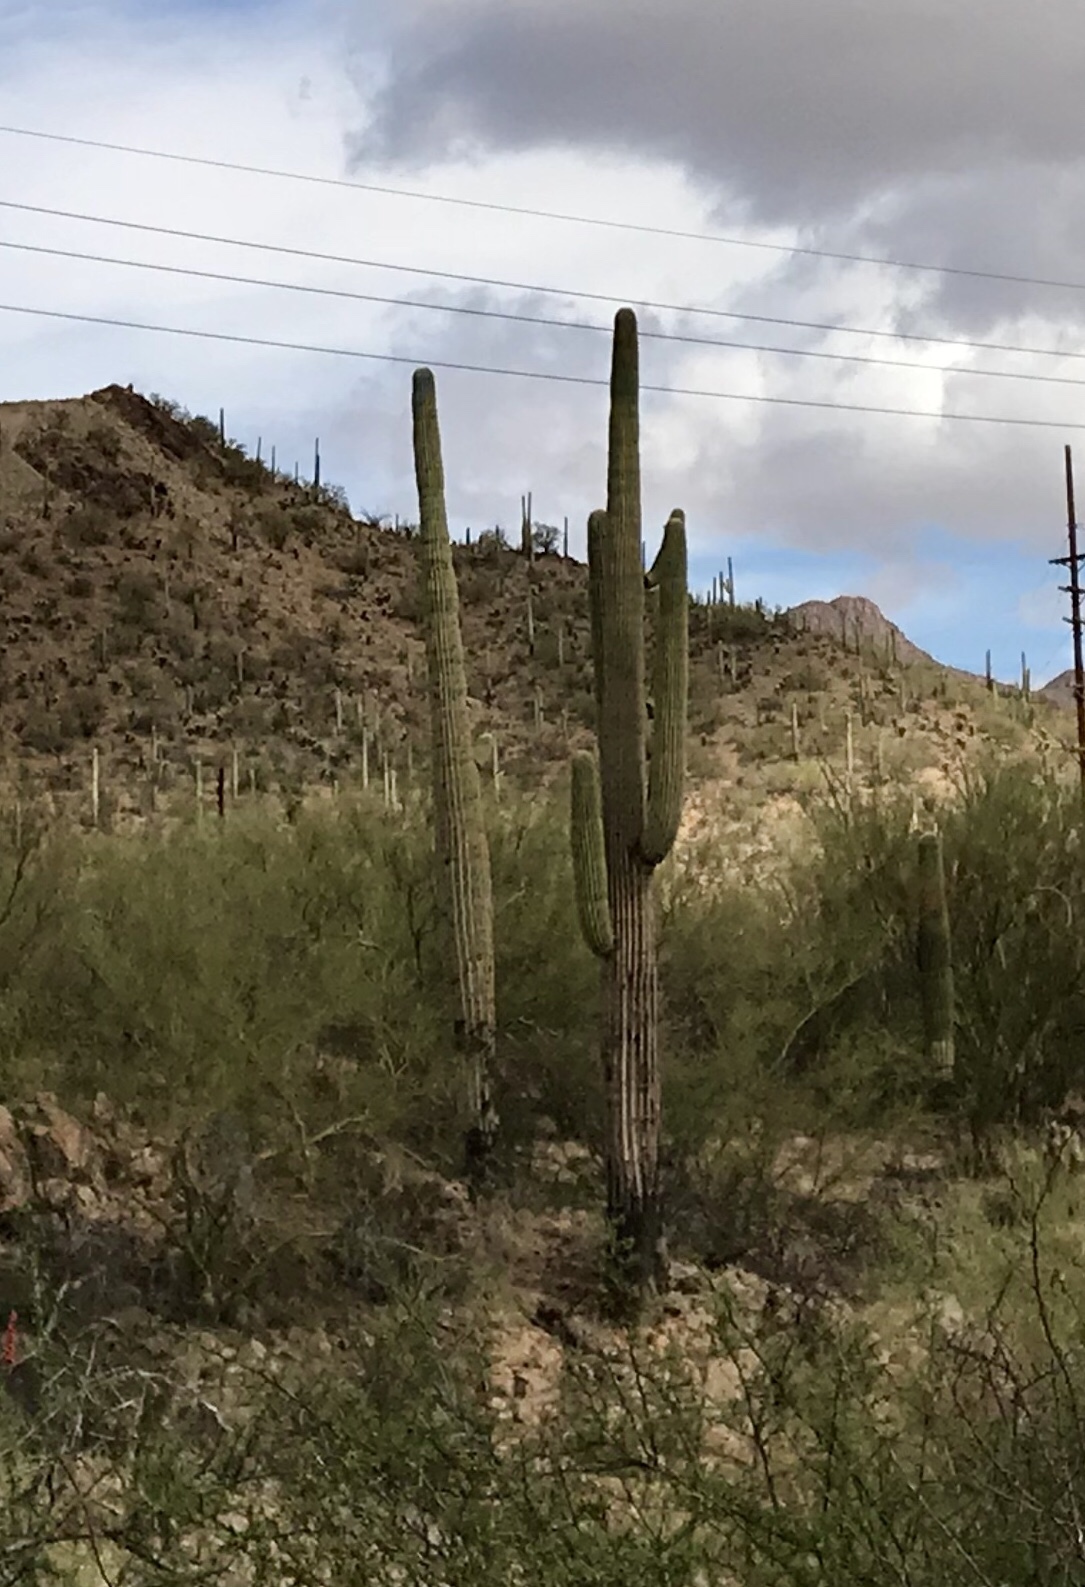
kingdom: Plantae
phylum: Tracheophyta
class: Magnoliopsida
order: Caryophyllales
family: Cactaceae
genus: Carnegiea
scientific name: Carnegiea gigantea
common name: Saguaro
